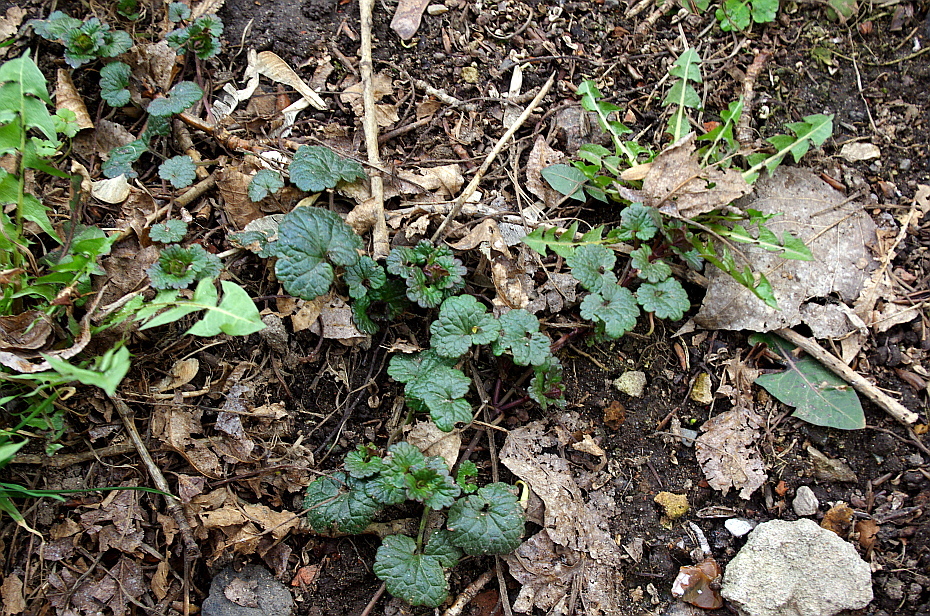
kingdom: Plantae
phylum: Tracheophyta
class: Magnoliopsida
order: Lamiales
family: Lamiaceae
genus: Glechoma
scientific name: Glechoma hederacea
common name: Ground ivy
